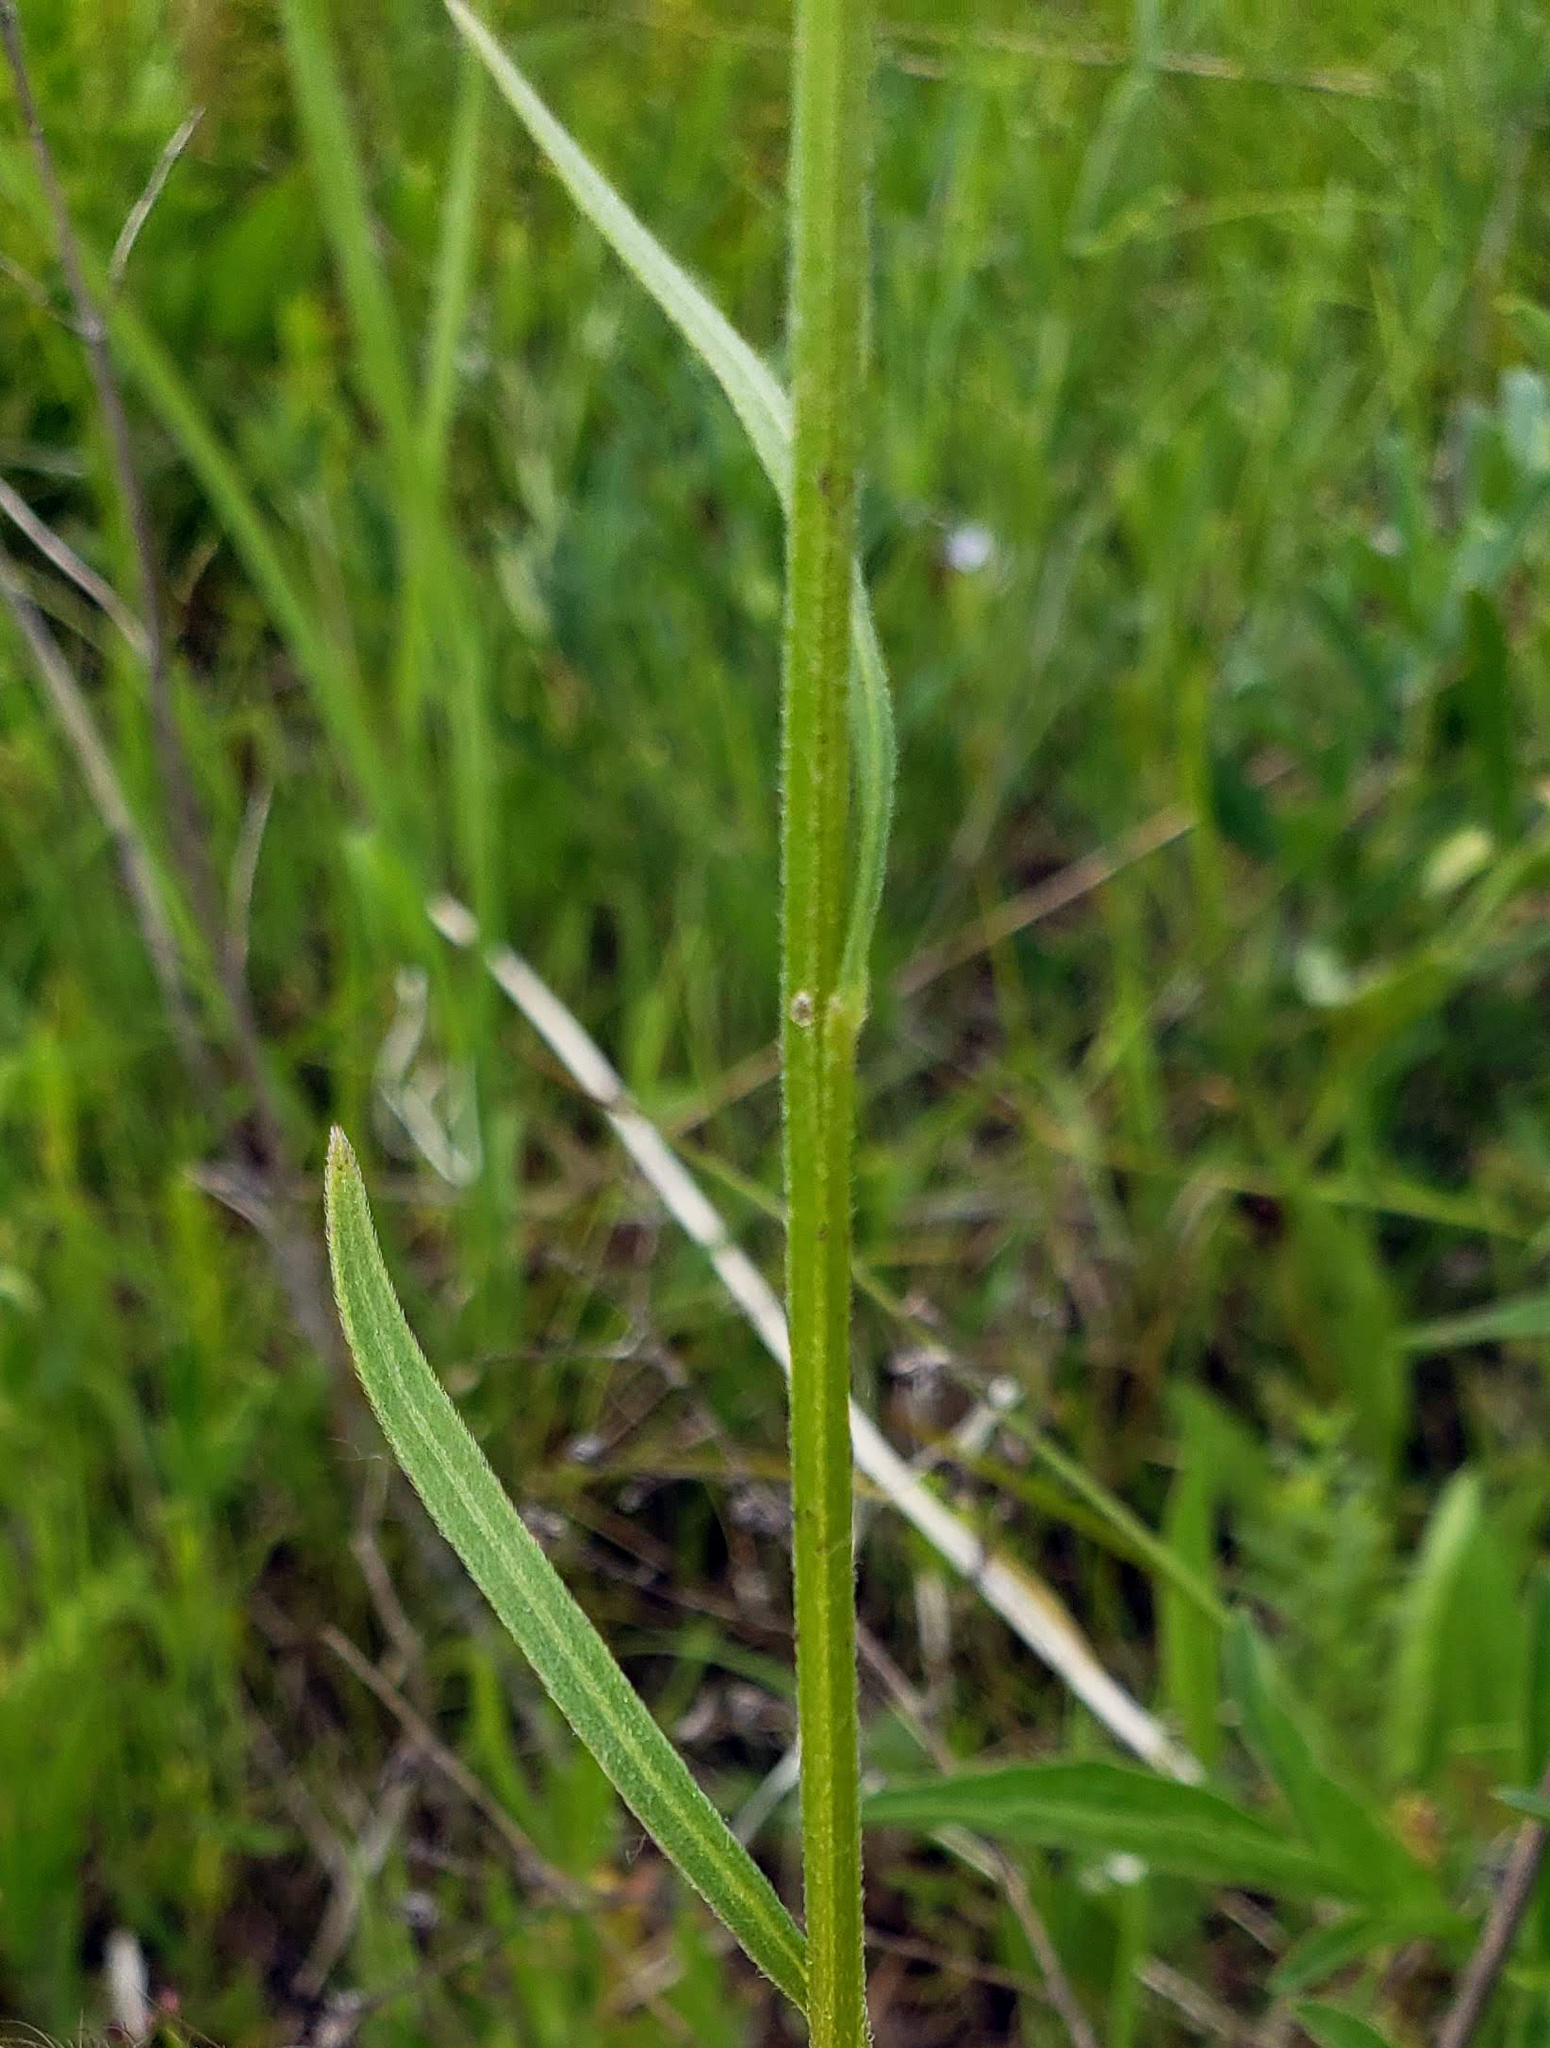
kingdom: Plantae
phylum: Tracheophyta
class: Magnoliopsida
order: Asterales
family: Asteraceae
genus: Erigeron
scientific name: Erigeron strigosus
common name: Common eastern fleabane
